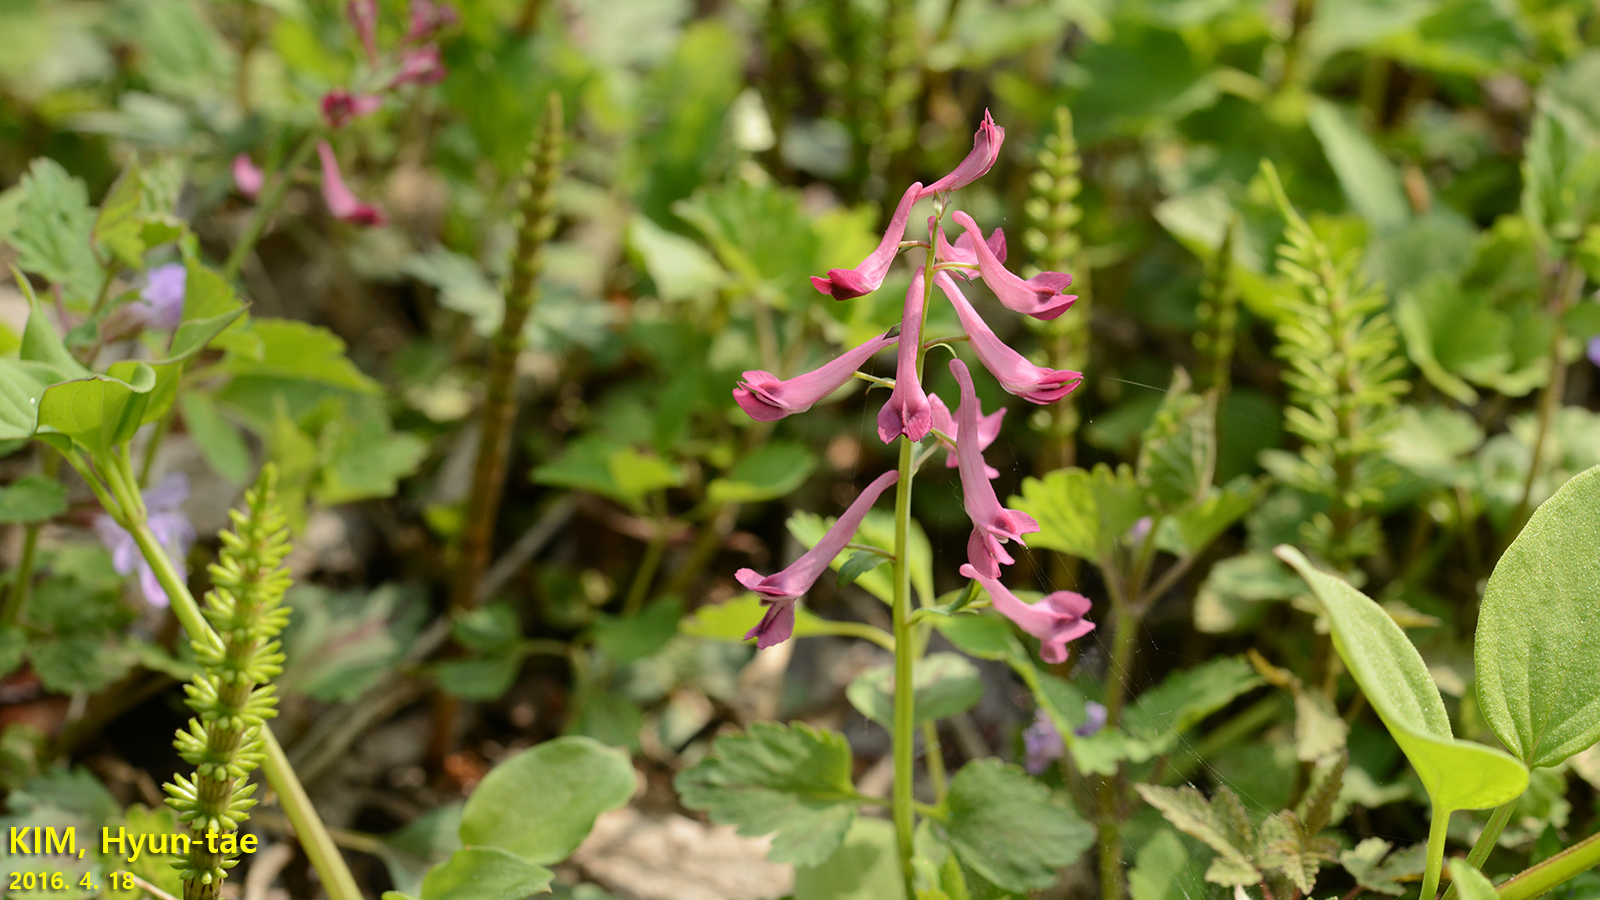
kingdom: Plantae
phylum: Tracheophyta
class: Magnoliopsida
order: Ranunculales
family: Papaveraceae
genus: Corydalis
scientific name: Corydalis ternata
